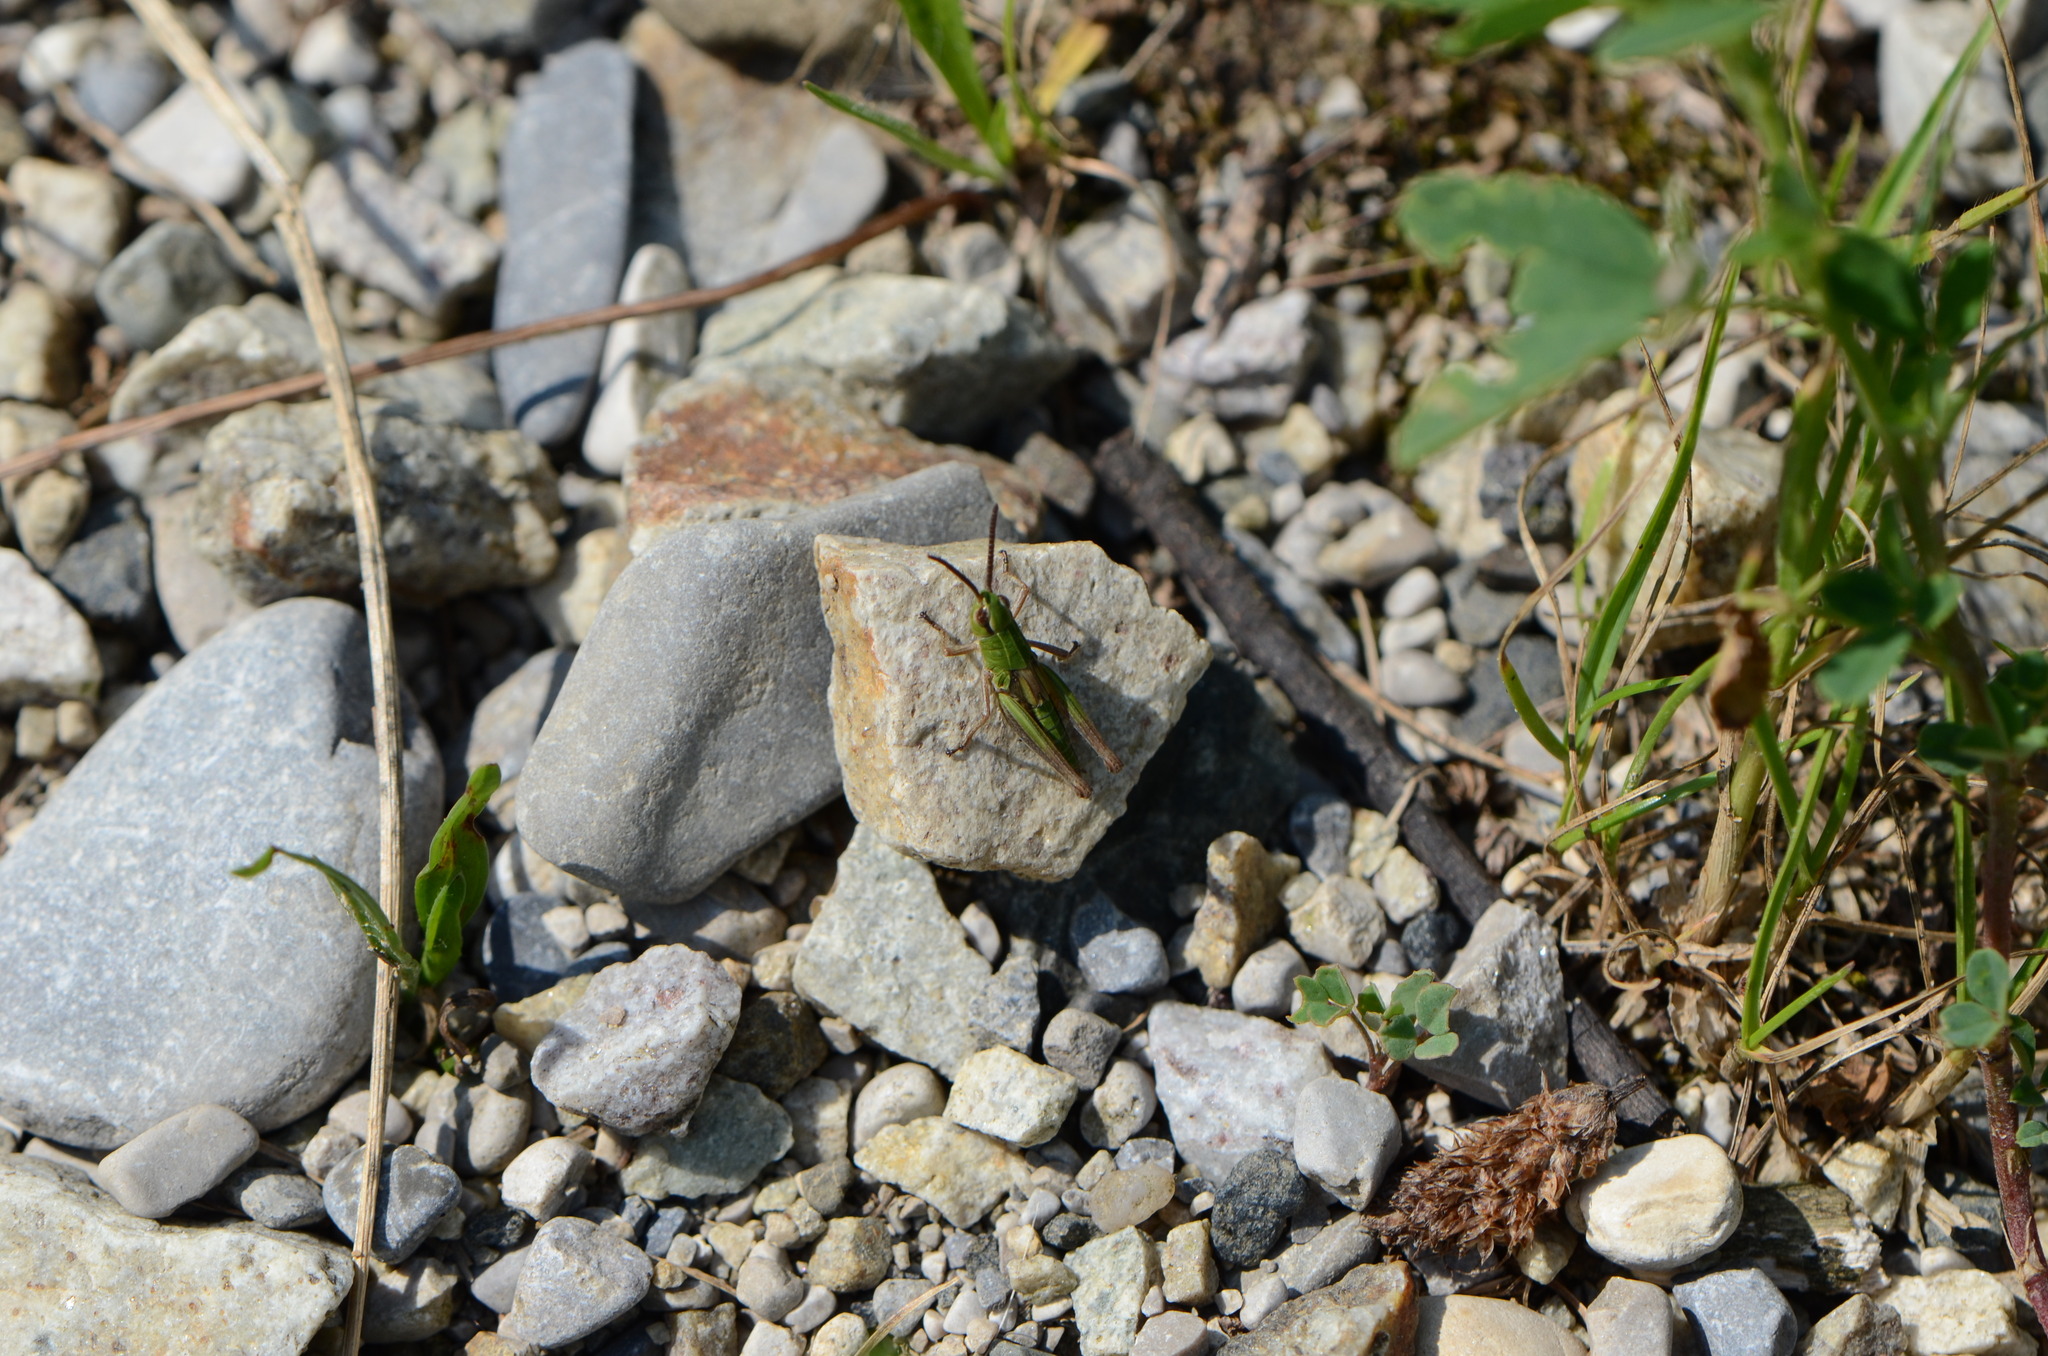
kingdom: Animalia
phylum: Arthropoda
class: Insecta
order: Orthoptera
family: Acrididae
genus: Pseudochorthippus
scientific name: Pseudochorthippus parallelus
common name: Meadow grasshopper
